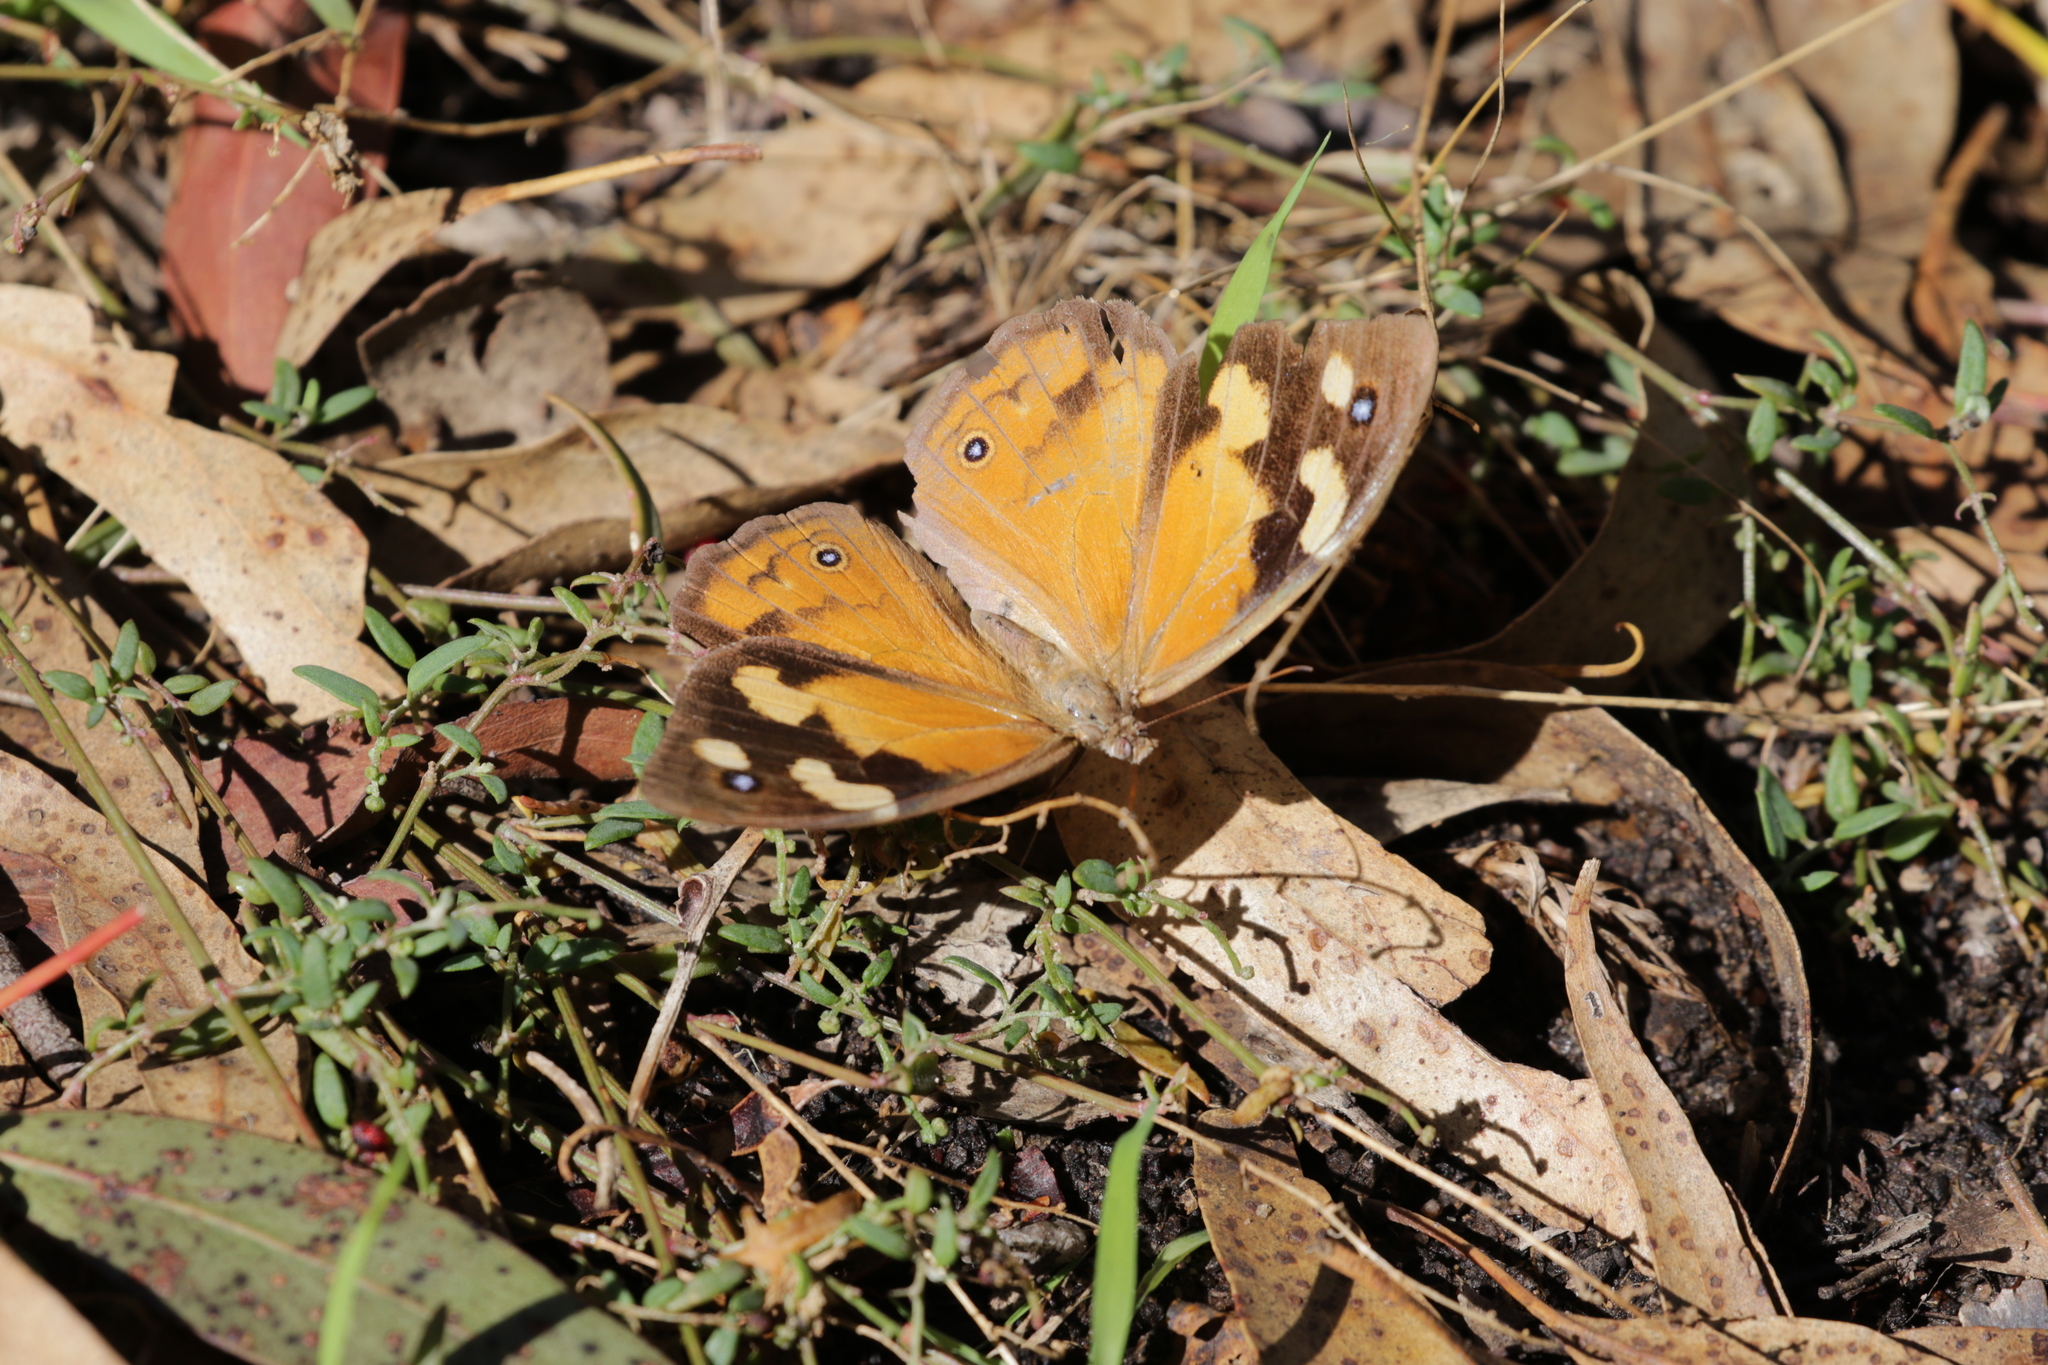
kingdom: Animalia
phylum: Arthropoda
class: Insecta
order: Lepidoptera
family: Nymphalidae
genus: Heteronympha
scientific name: Heteronympha merope
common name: Common brown
